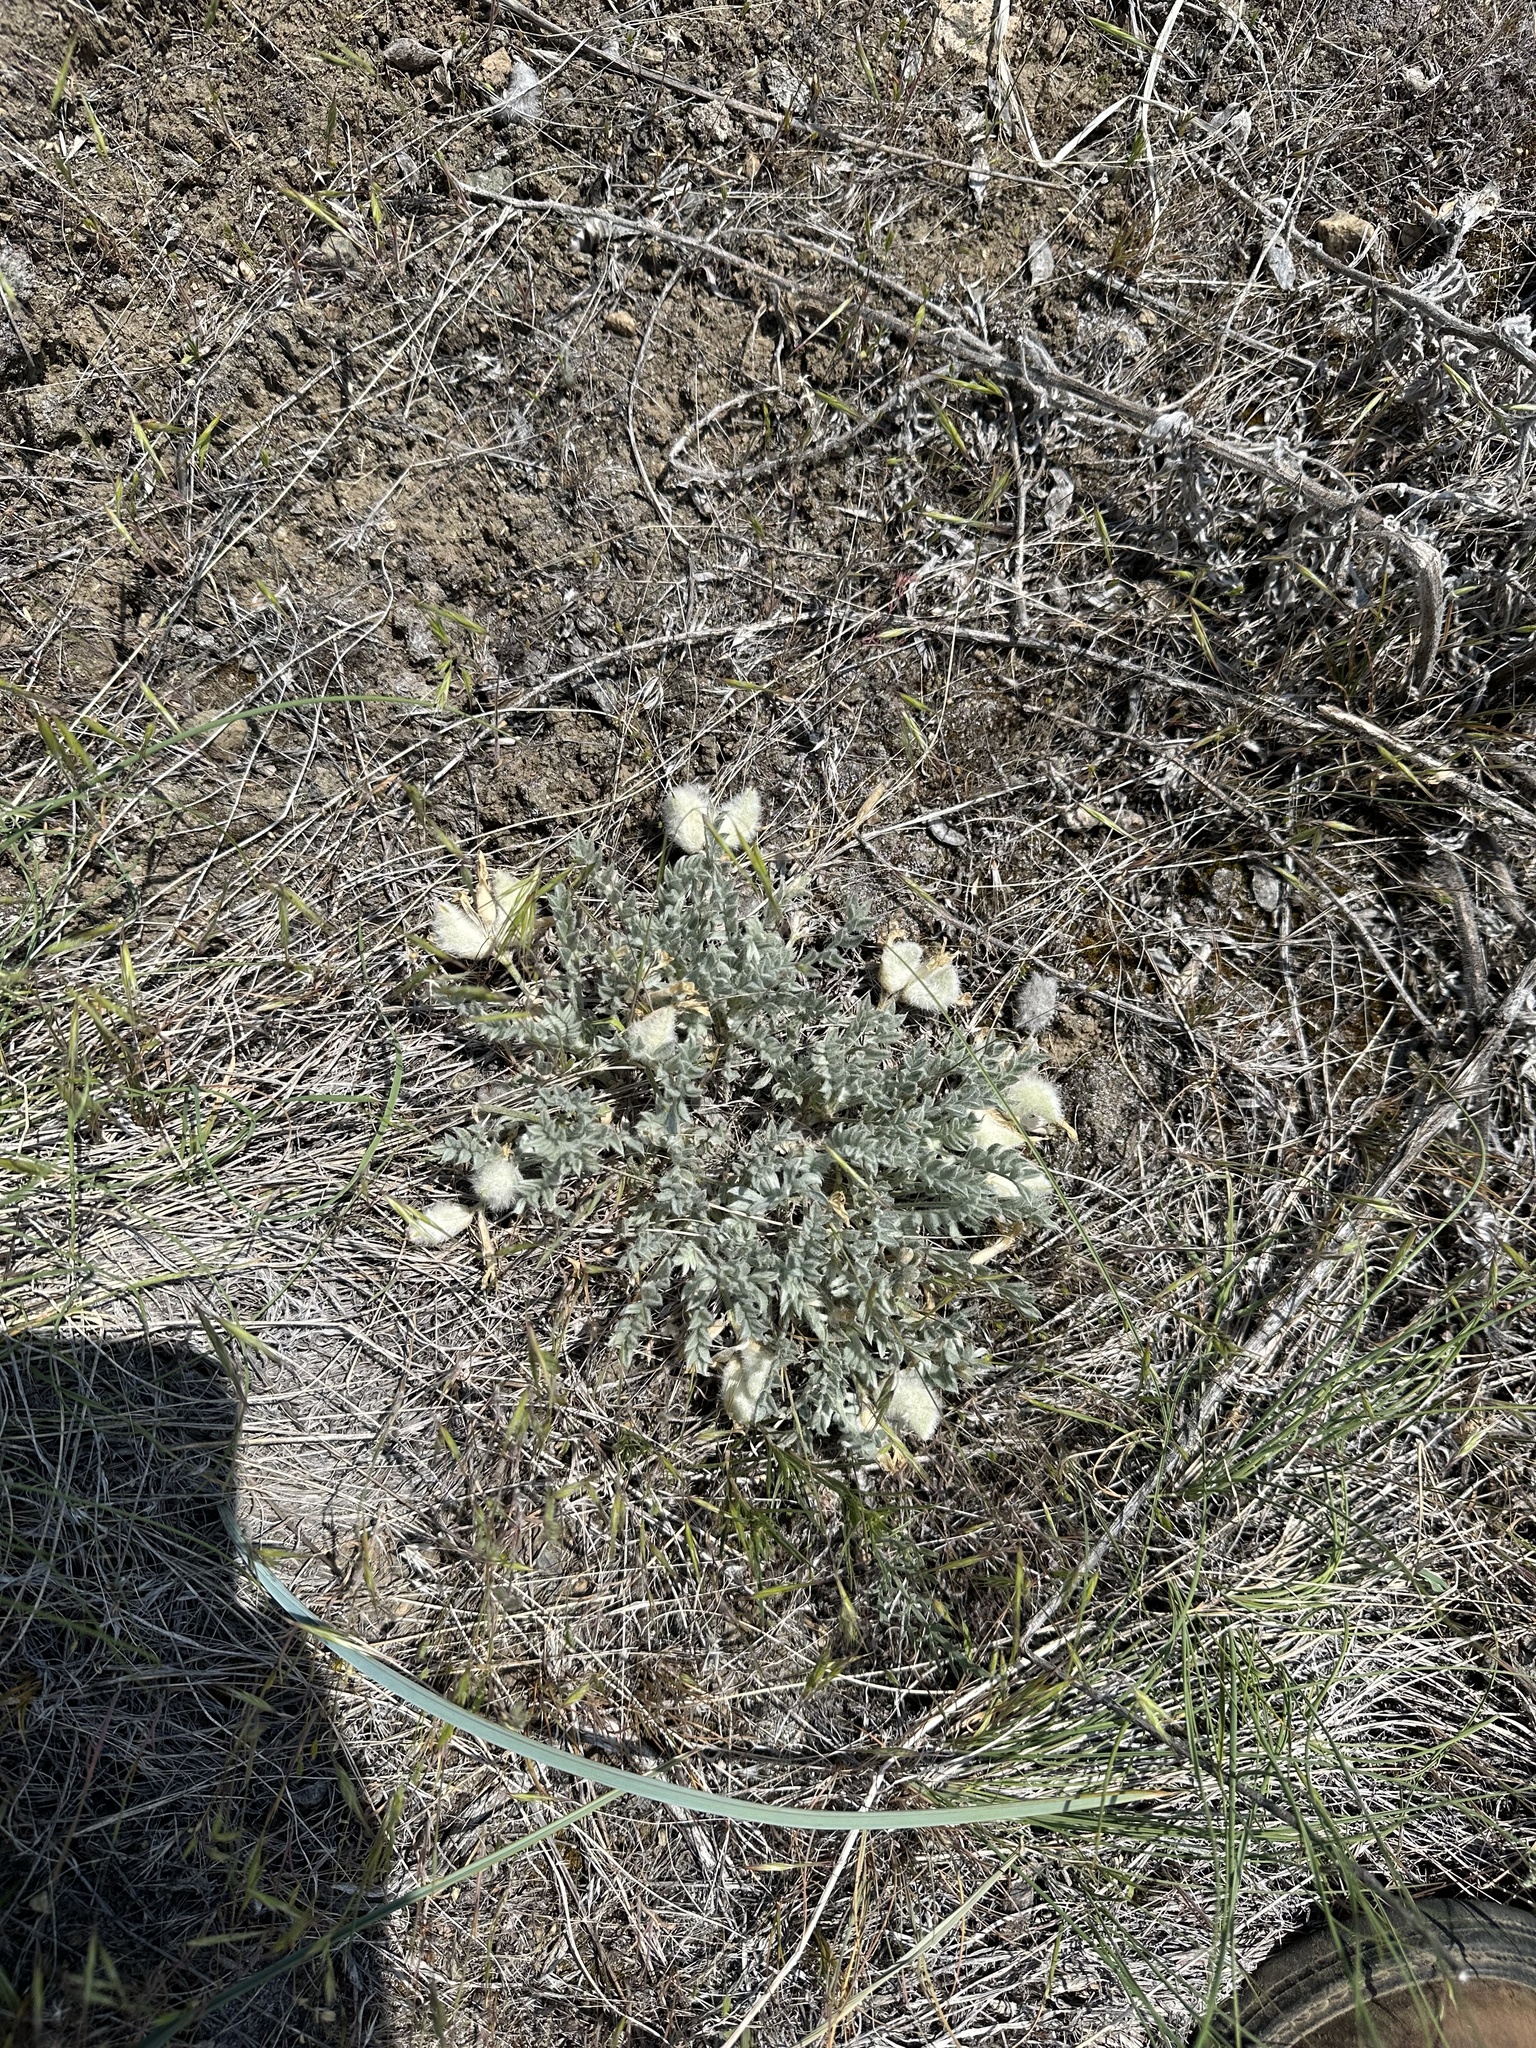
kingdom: Plantae
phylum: Tracheophyta
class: Magnoliopsida
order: Fabales
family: Fabaceae
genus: Astragalus
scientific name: Astragalus purshii
